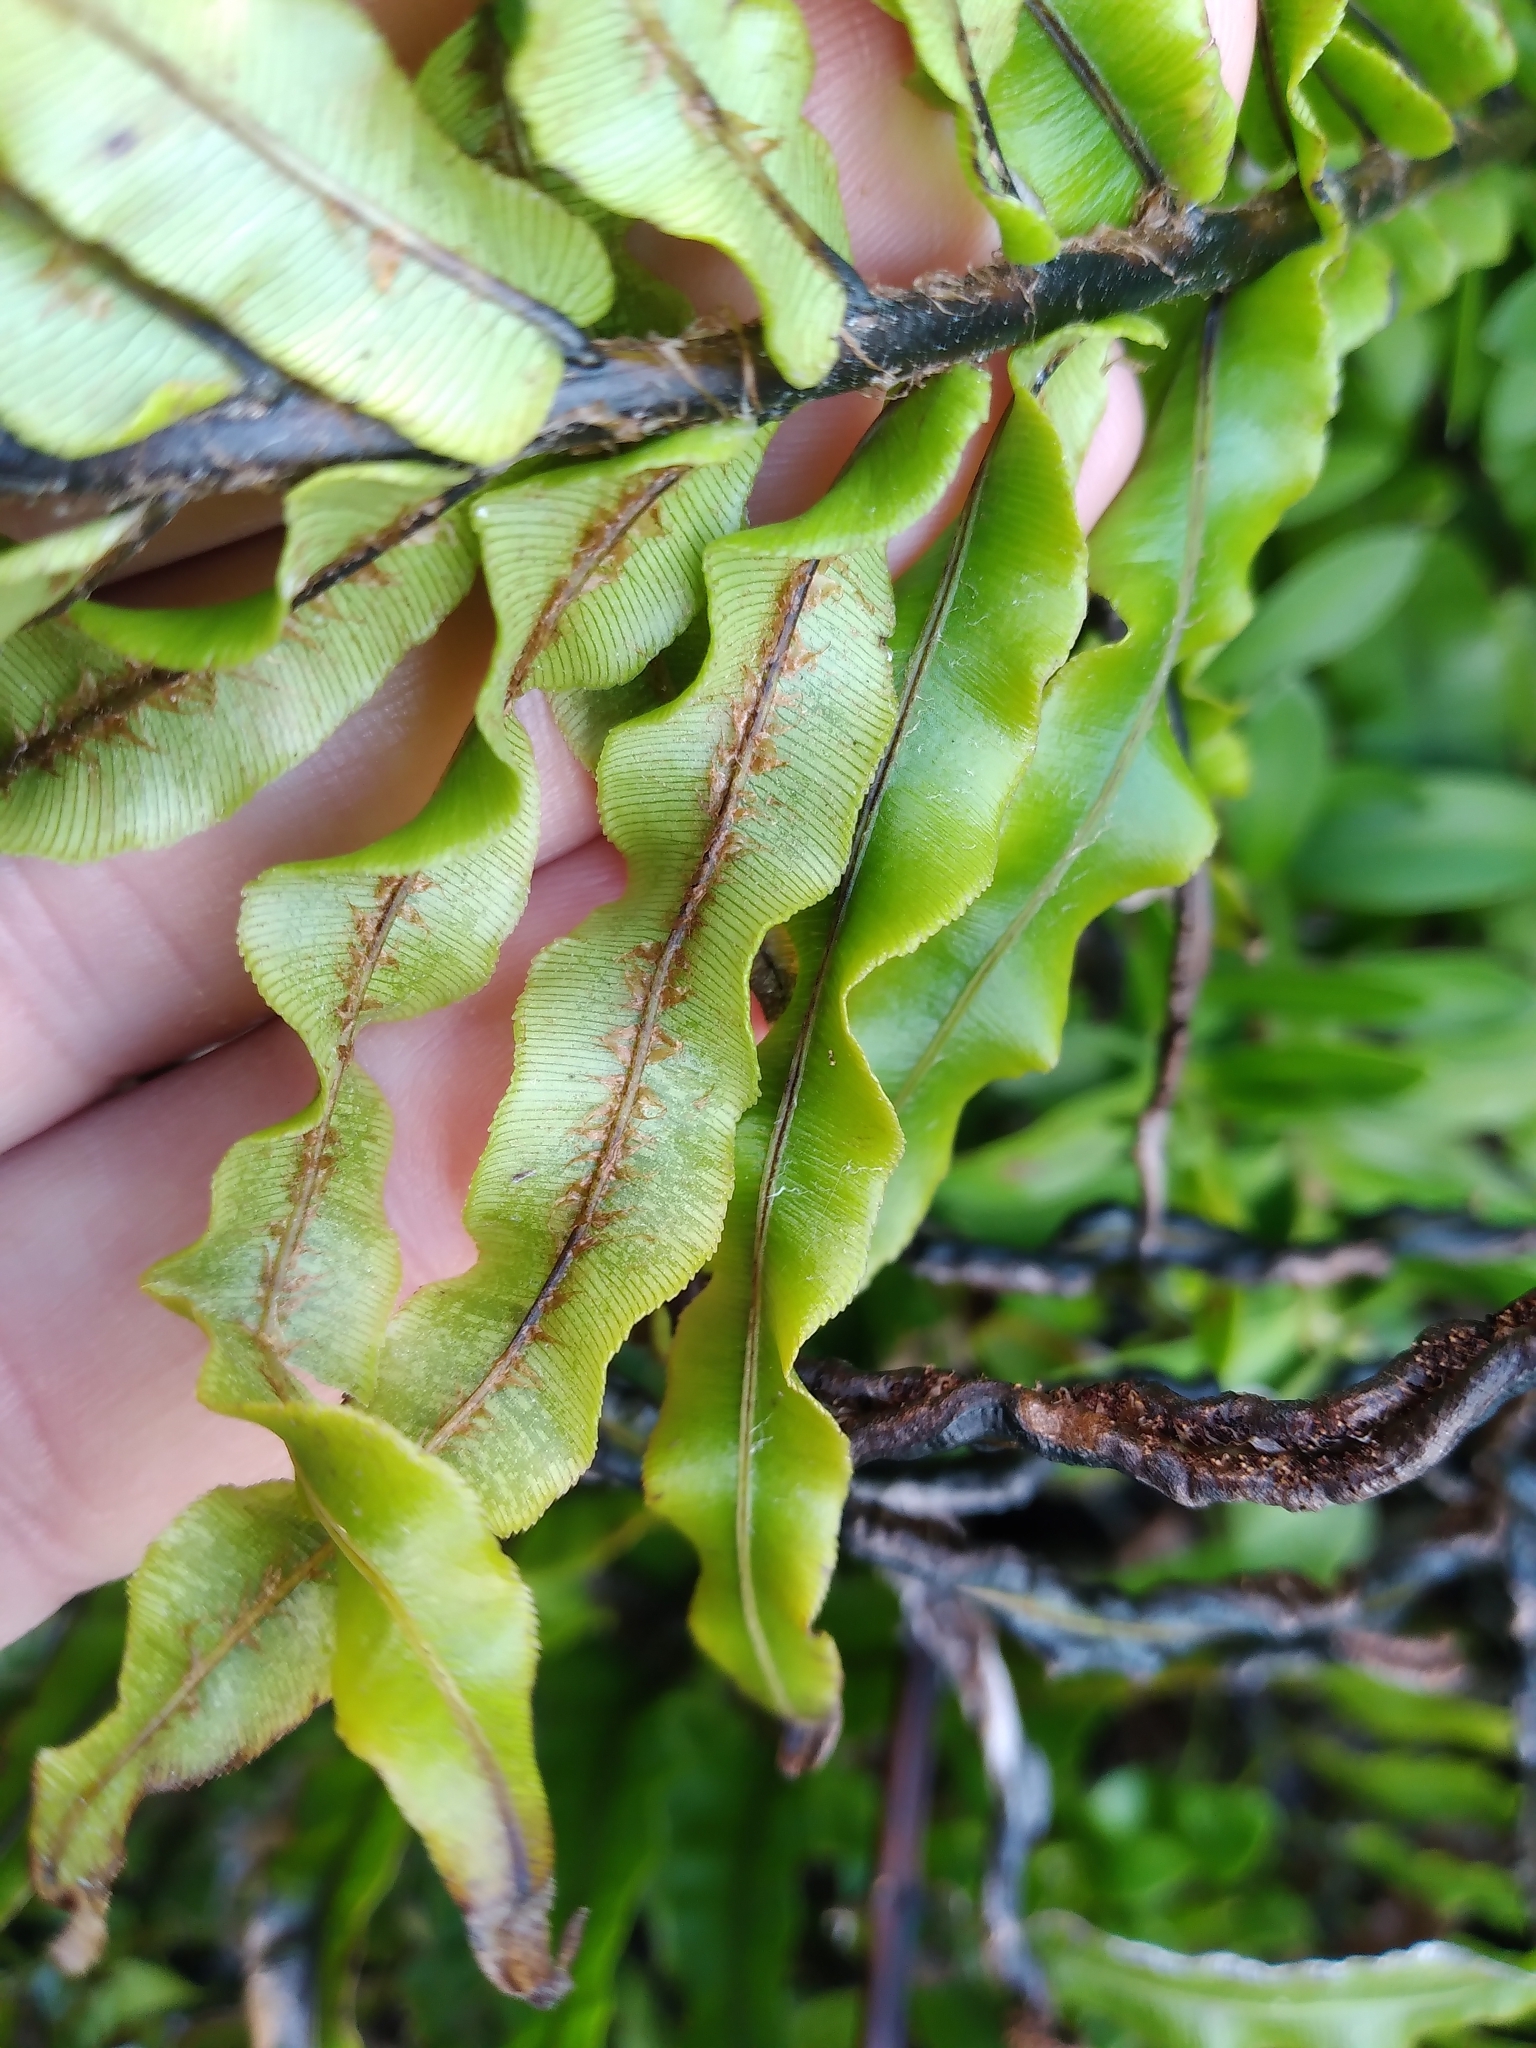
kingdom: Plantae
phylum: Tracheophyta
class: Polypodiopsida
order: Polypodiales
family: Blechnaceae
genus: Parablechnum
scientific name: Parablechnum minus
